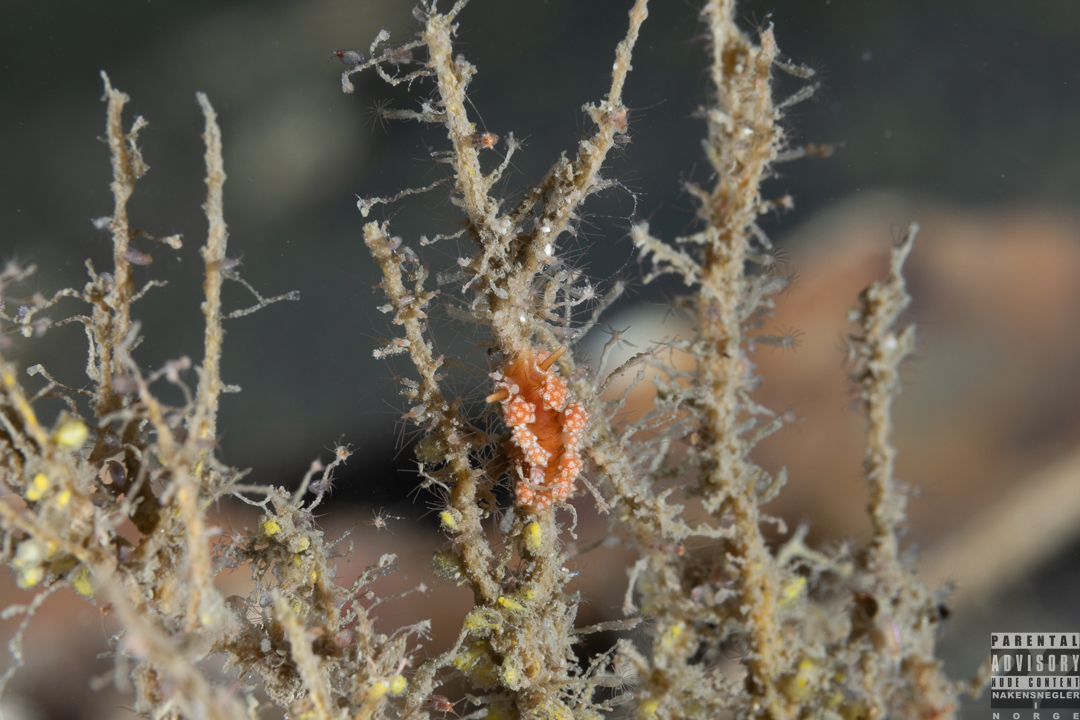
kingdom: Animalia
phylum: Mollusca
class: Gastropoda
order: Nudibranchia
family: Dotidae
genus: Doto
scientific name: Doto fragilis
